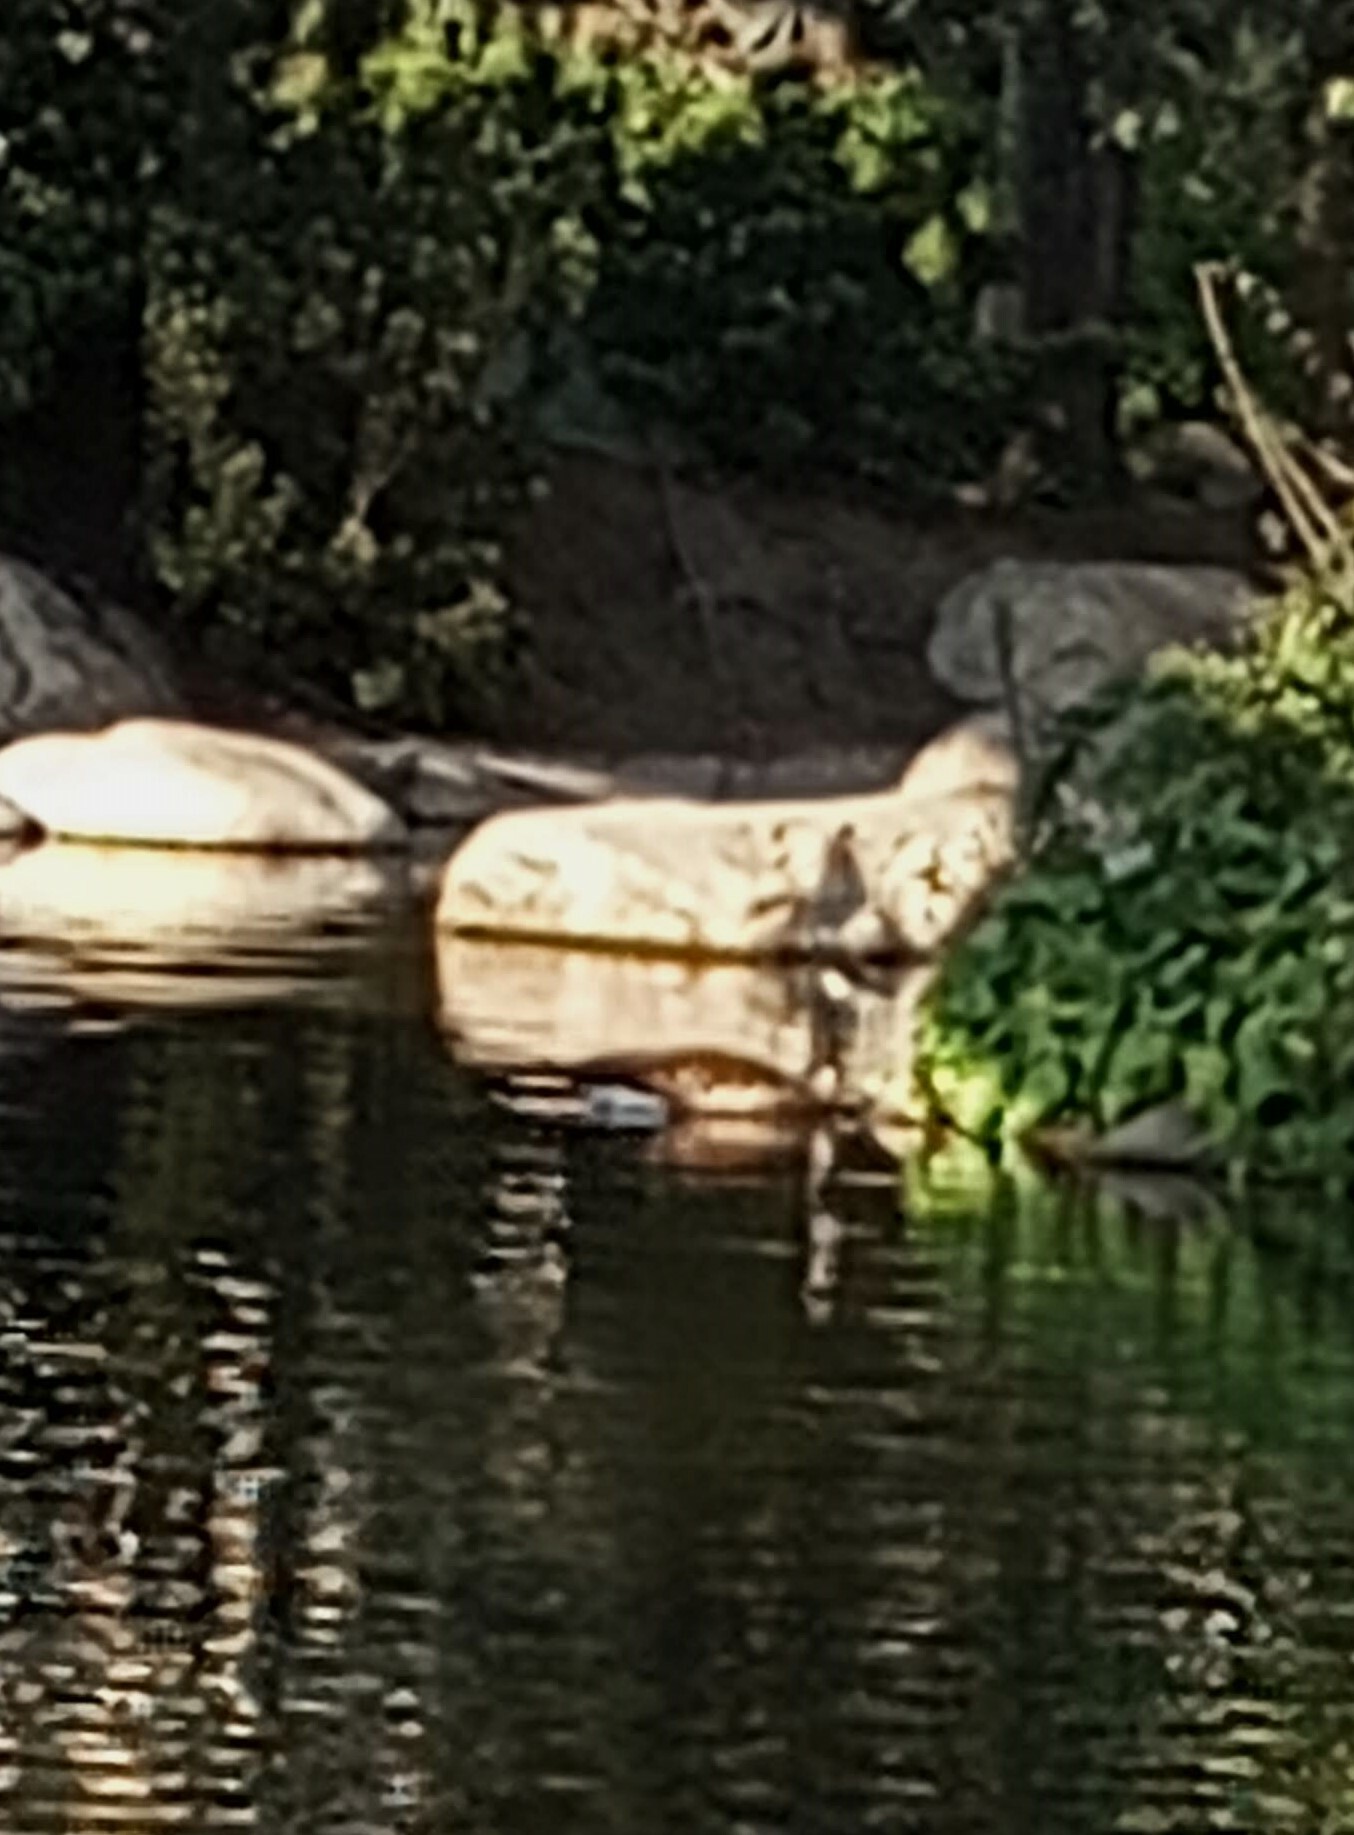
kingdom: Animalia
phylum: Chordata
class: Aves
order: Anseriformes
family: Anatidae
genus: Branta
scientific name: Branta canadensis
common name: Canada goose
